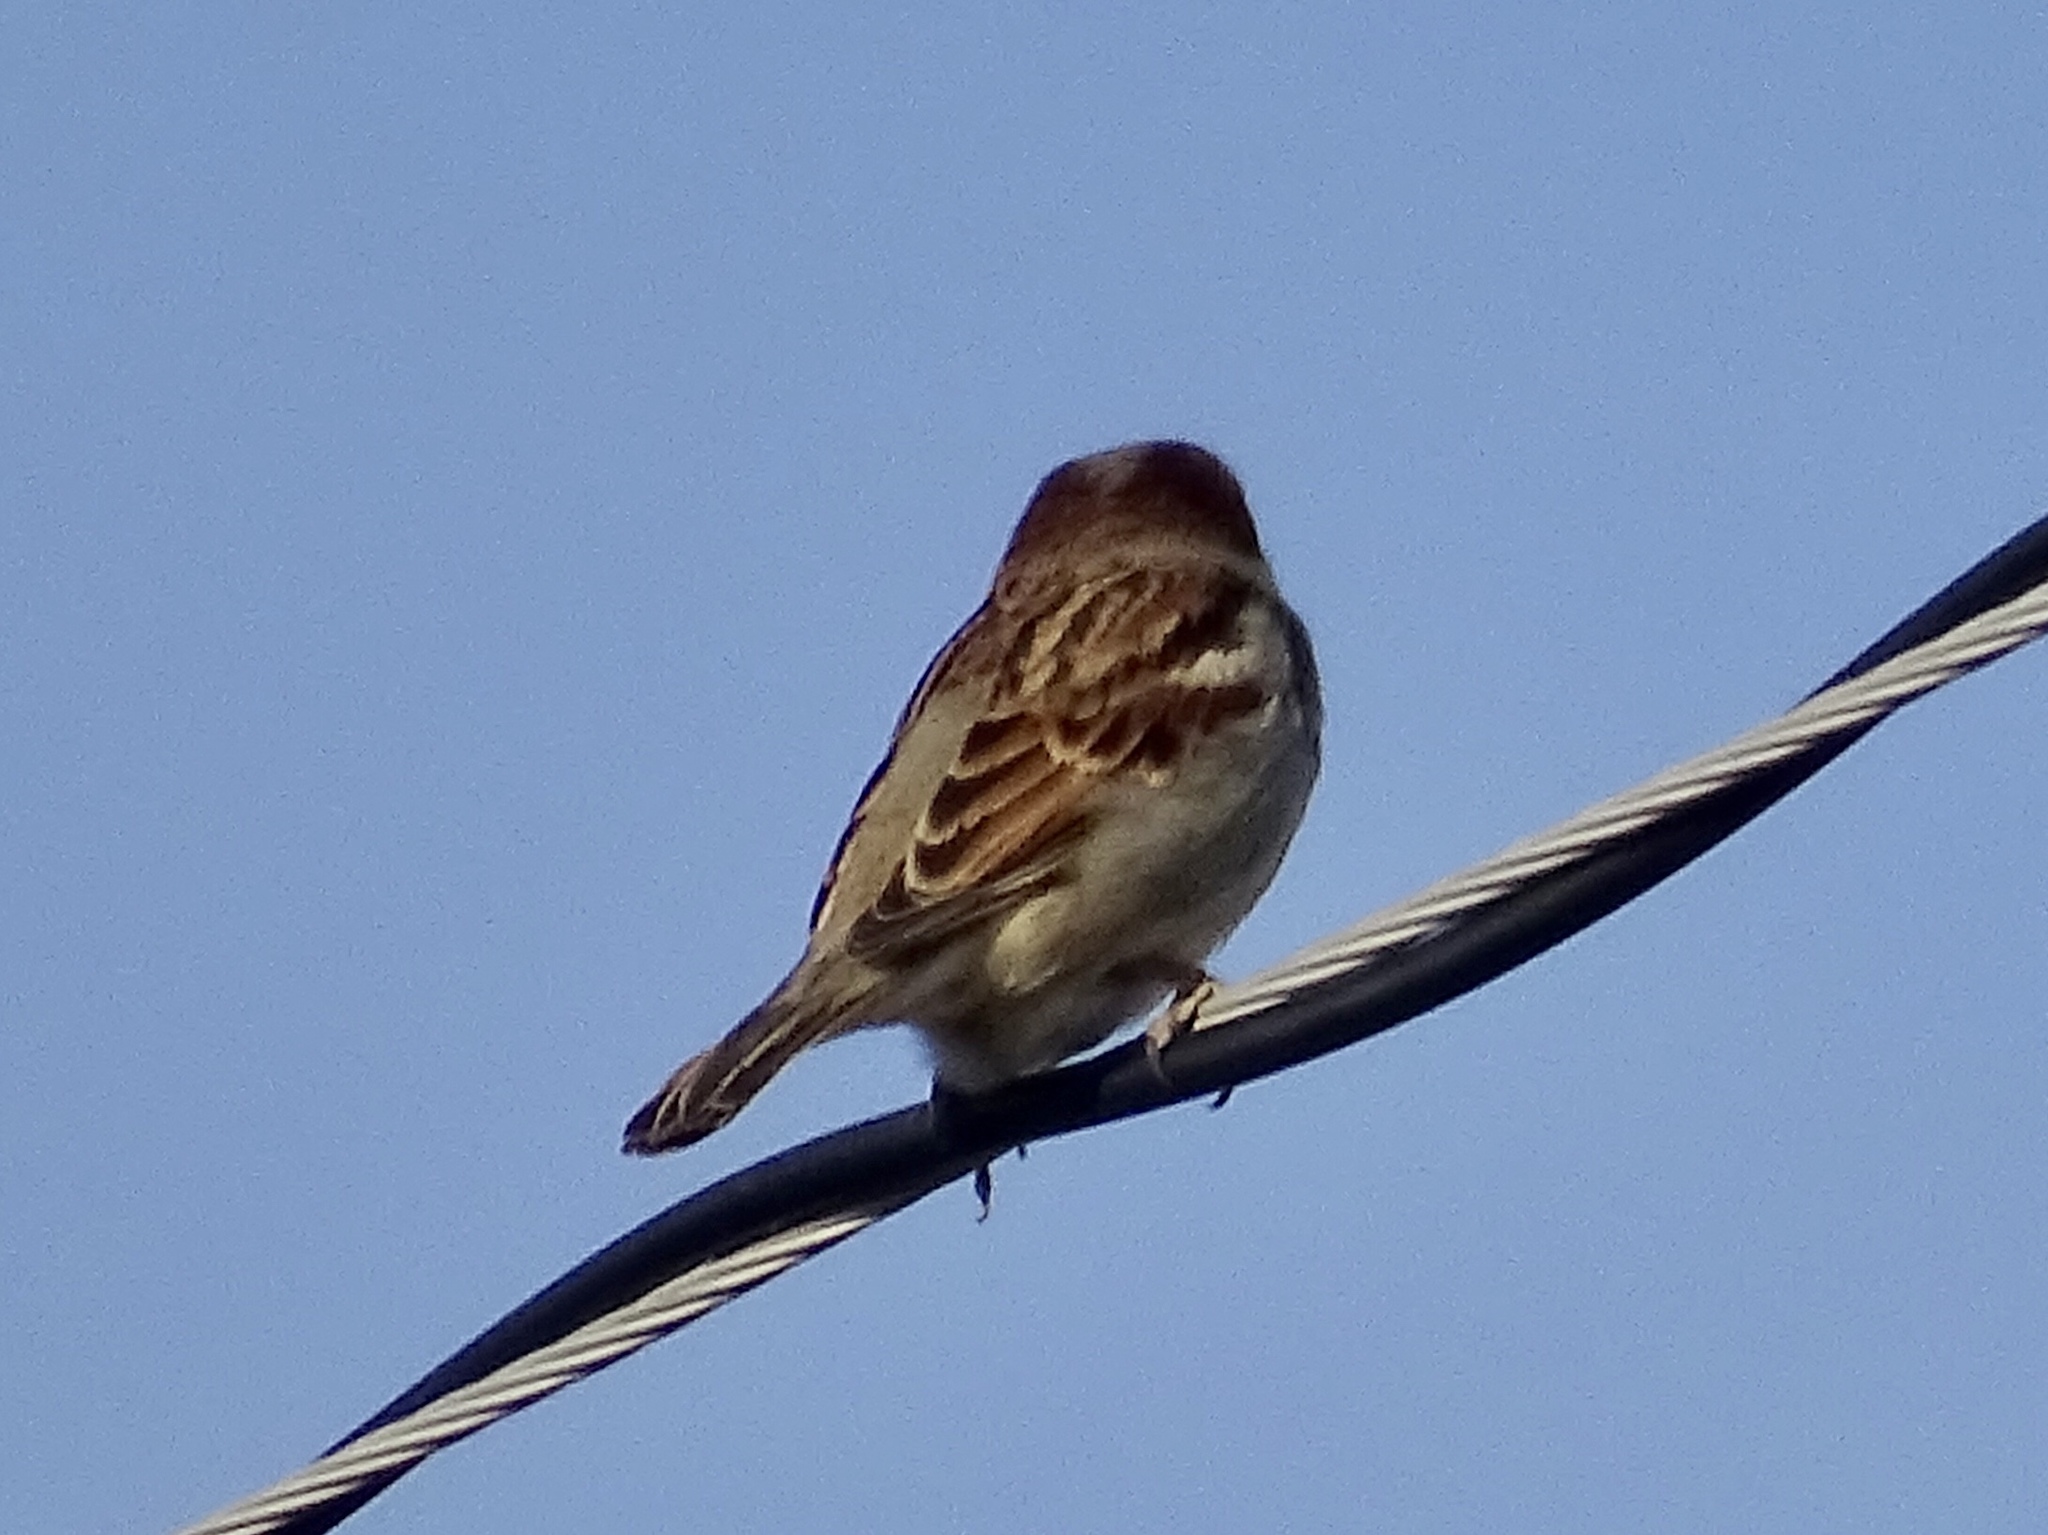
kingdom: Animalia
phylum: Chordata
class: Aves
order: Passeriformes
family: Passeridae
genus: Passer
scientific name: Passer domesticus
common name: House sparrow
